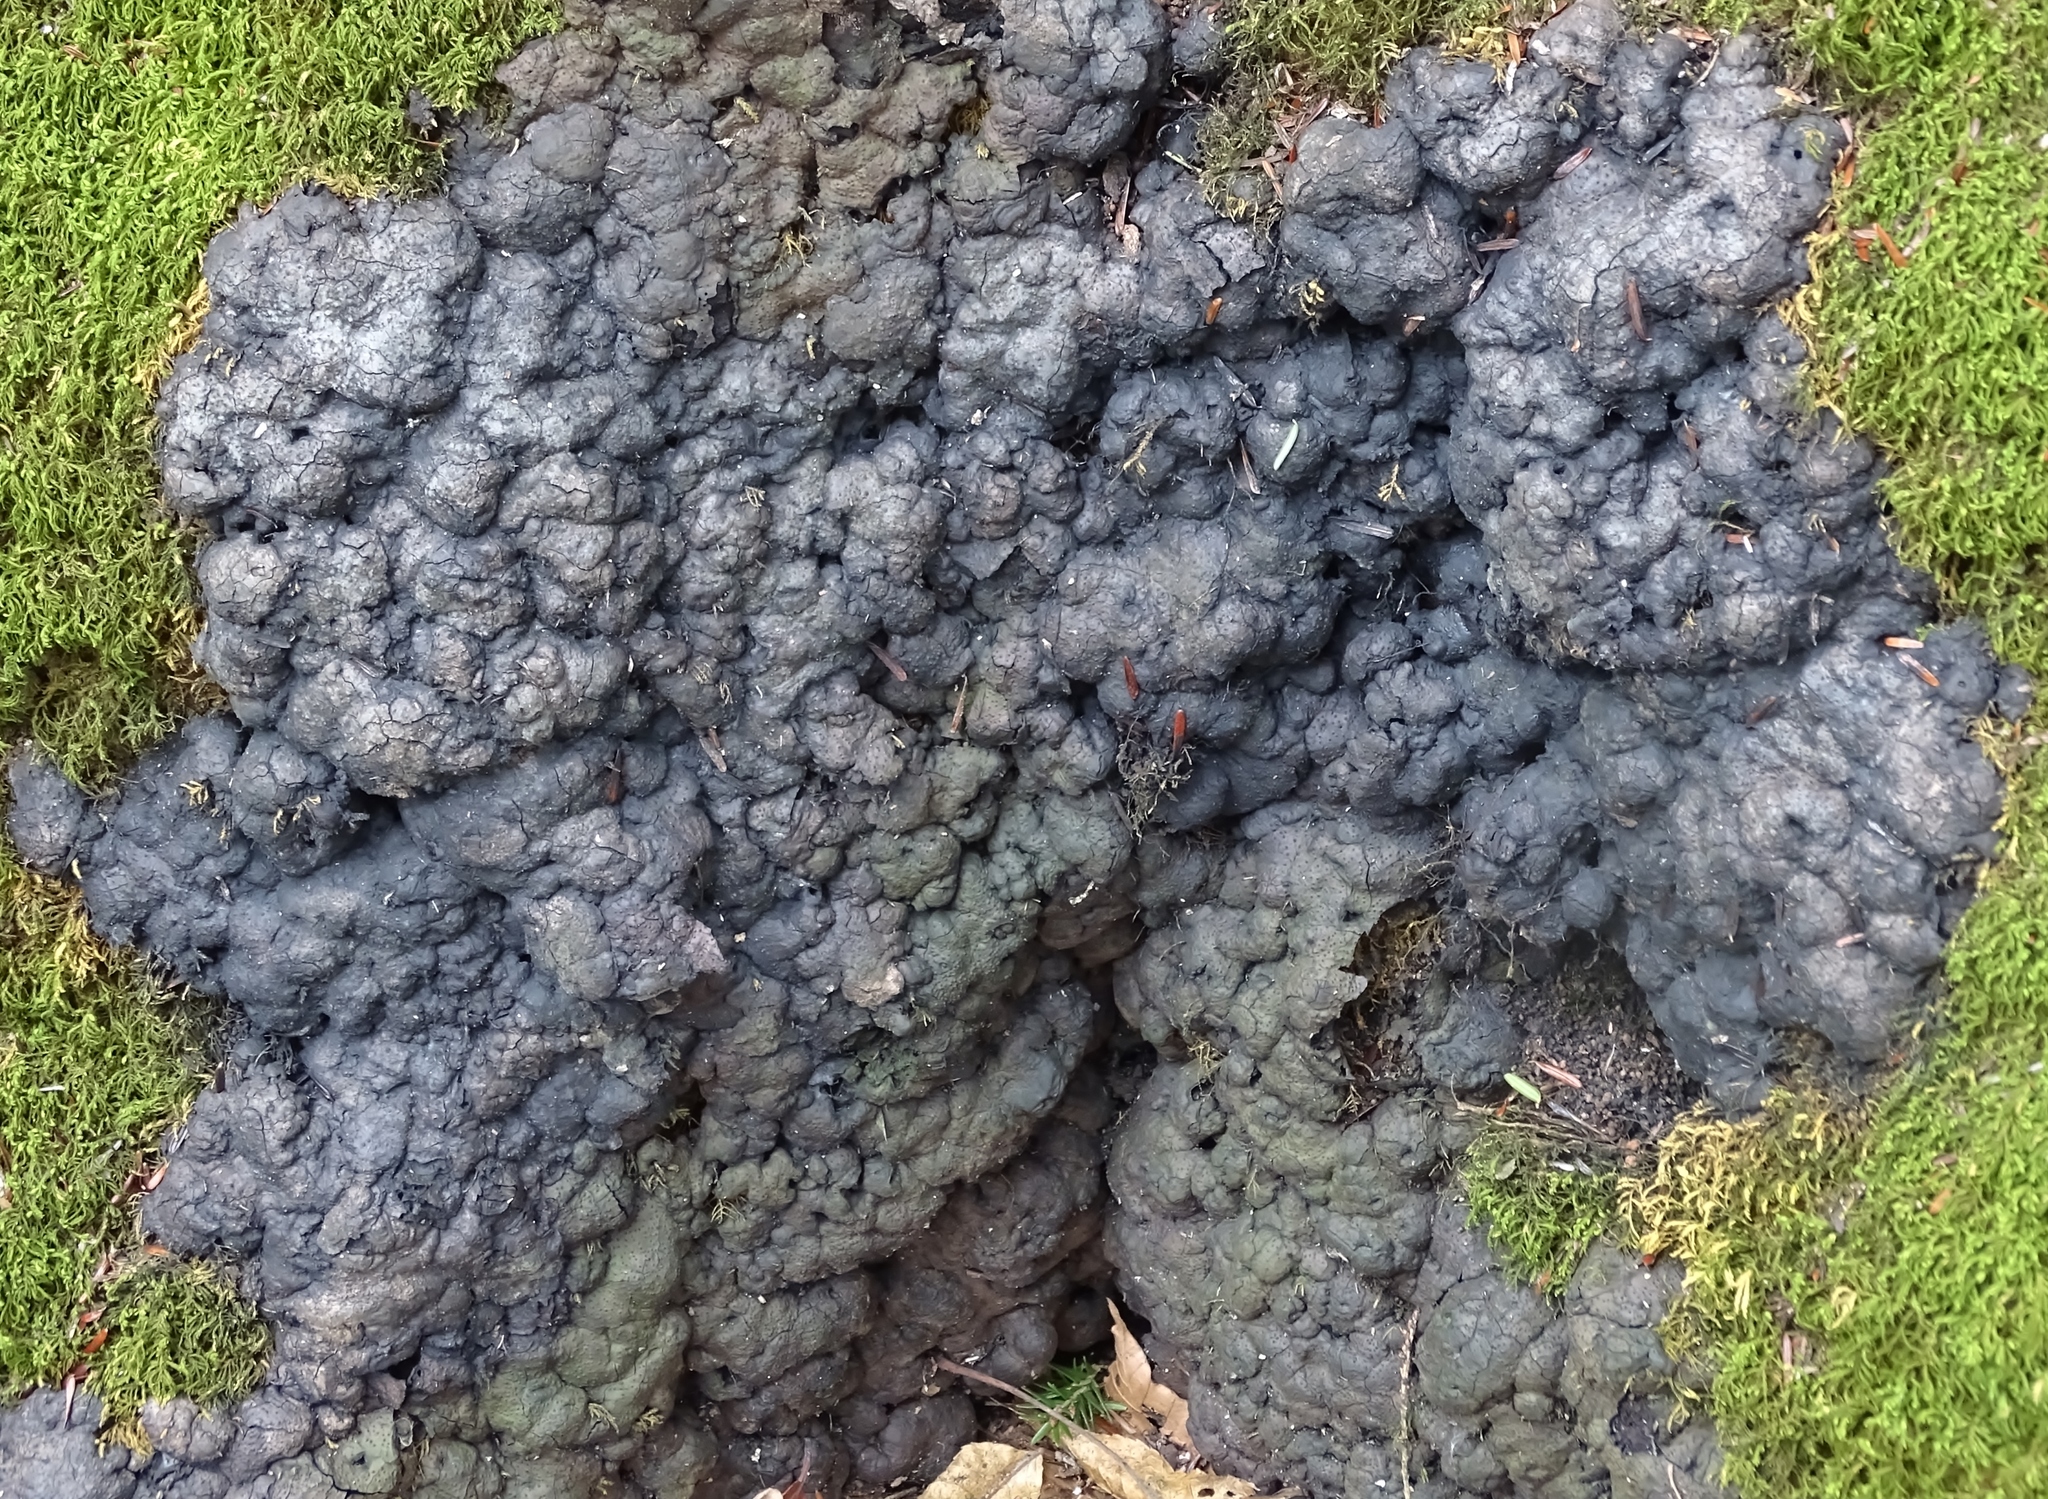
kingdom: Fungi
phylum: Ascomycota
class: Sordariomycetes
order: Xylariales
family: Xylariaceae
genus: Kretzschmaria
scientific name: Kretzschmaria deusta
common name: Brittle cinder
